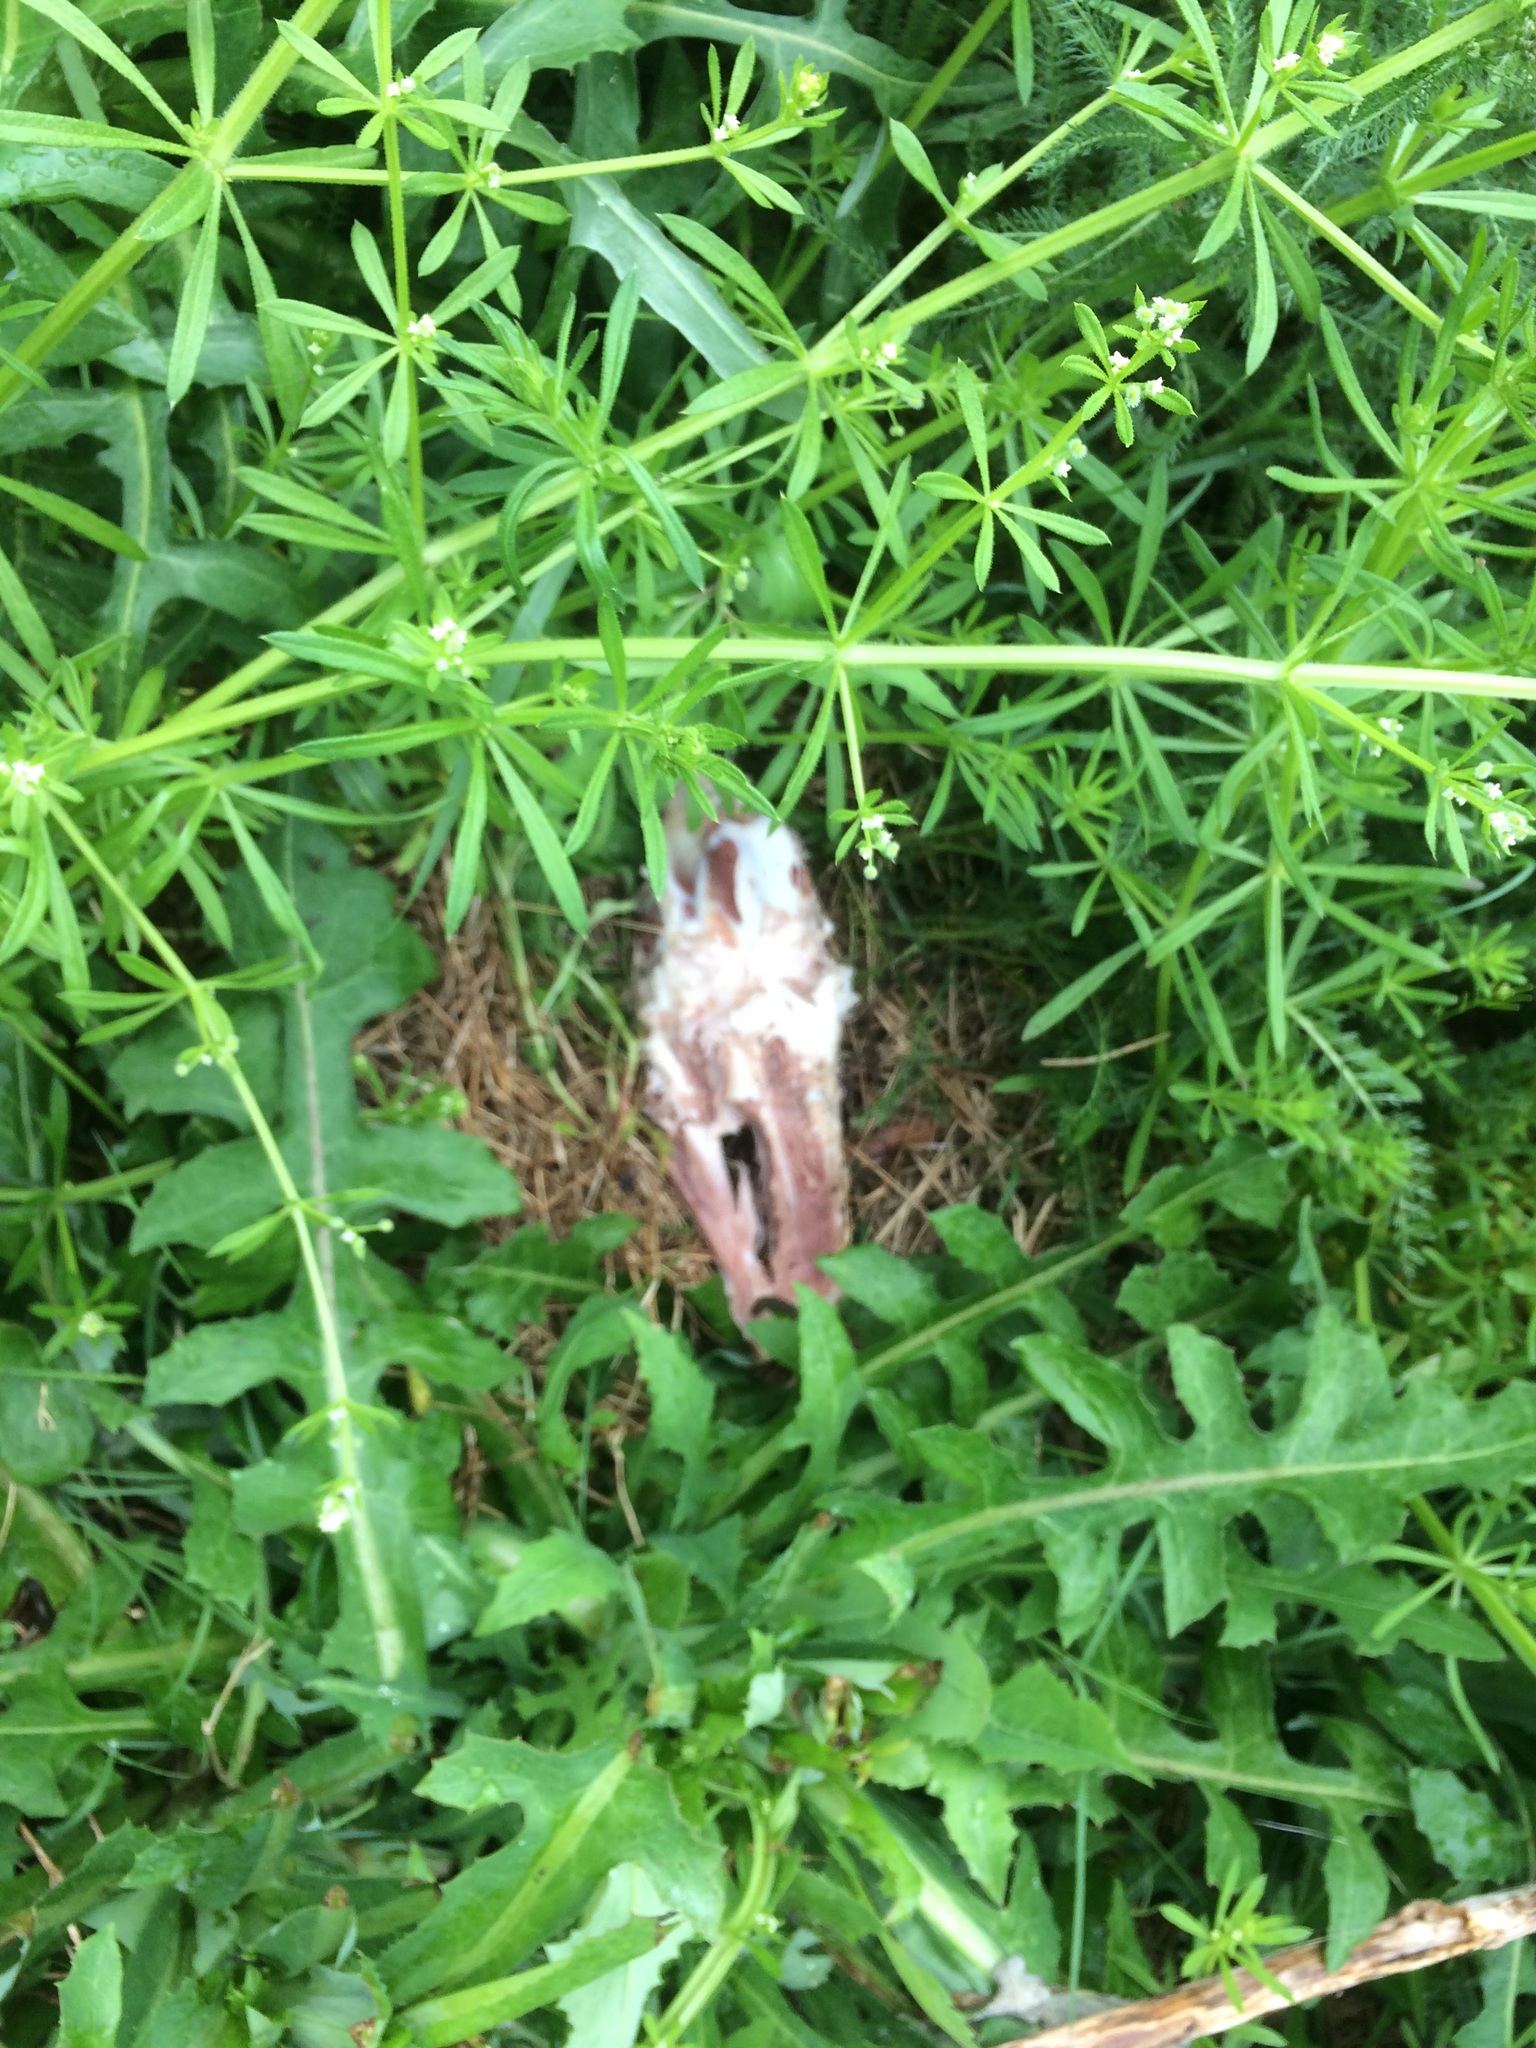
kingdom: Plantae
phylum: Tracheophyta
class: Magnoliopsida
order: Gentianales
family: Rubiaceae
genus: Galium
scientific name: Galium aparine
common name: Cleavers
